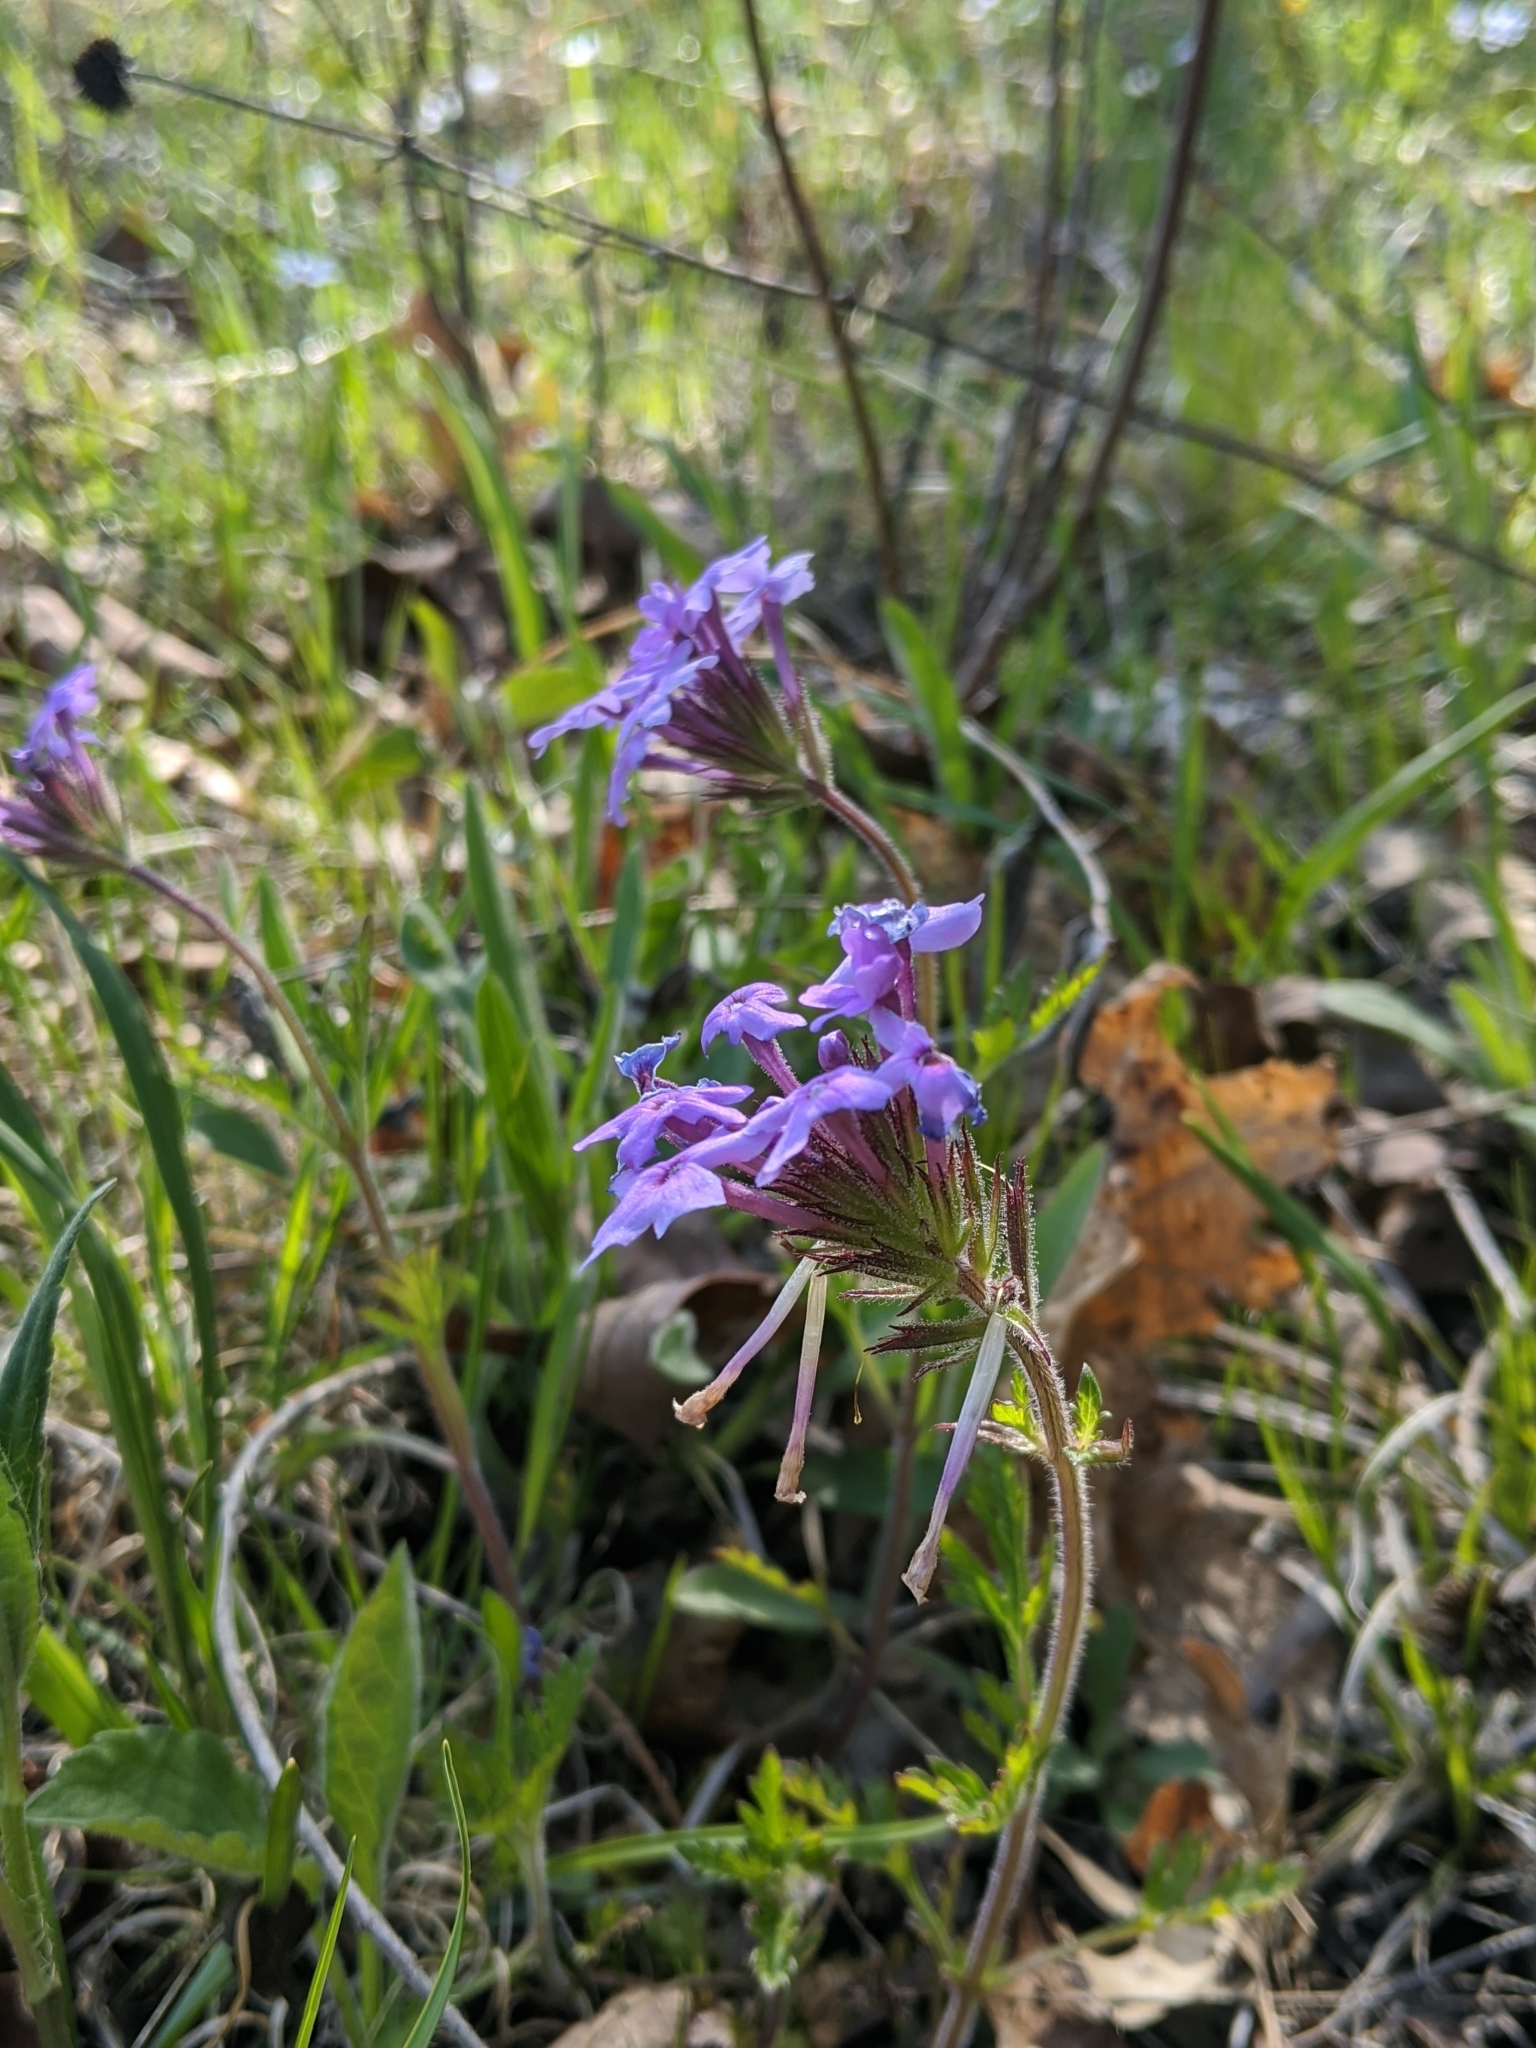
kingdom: Plantae
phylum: Tracheophyta
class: Magnoliopsida
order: Lamiales
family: Verbenaceae
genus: Verbena
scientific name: Verbena canadensis
